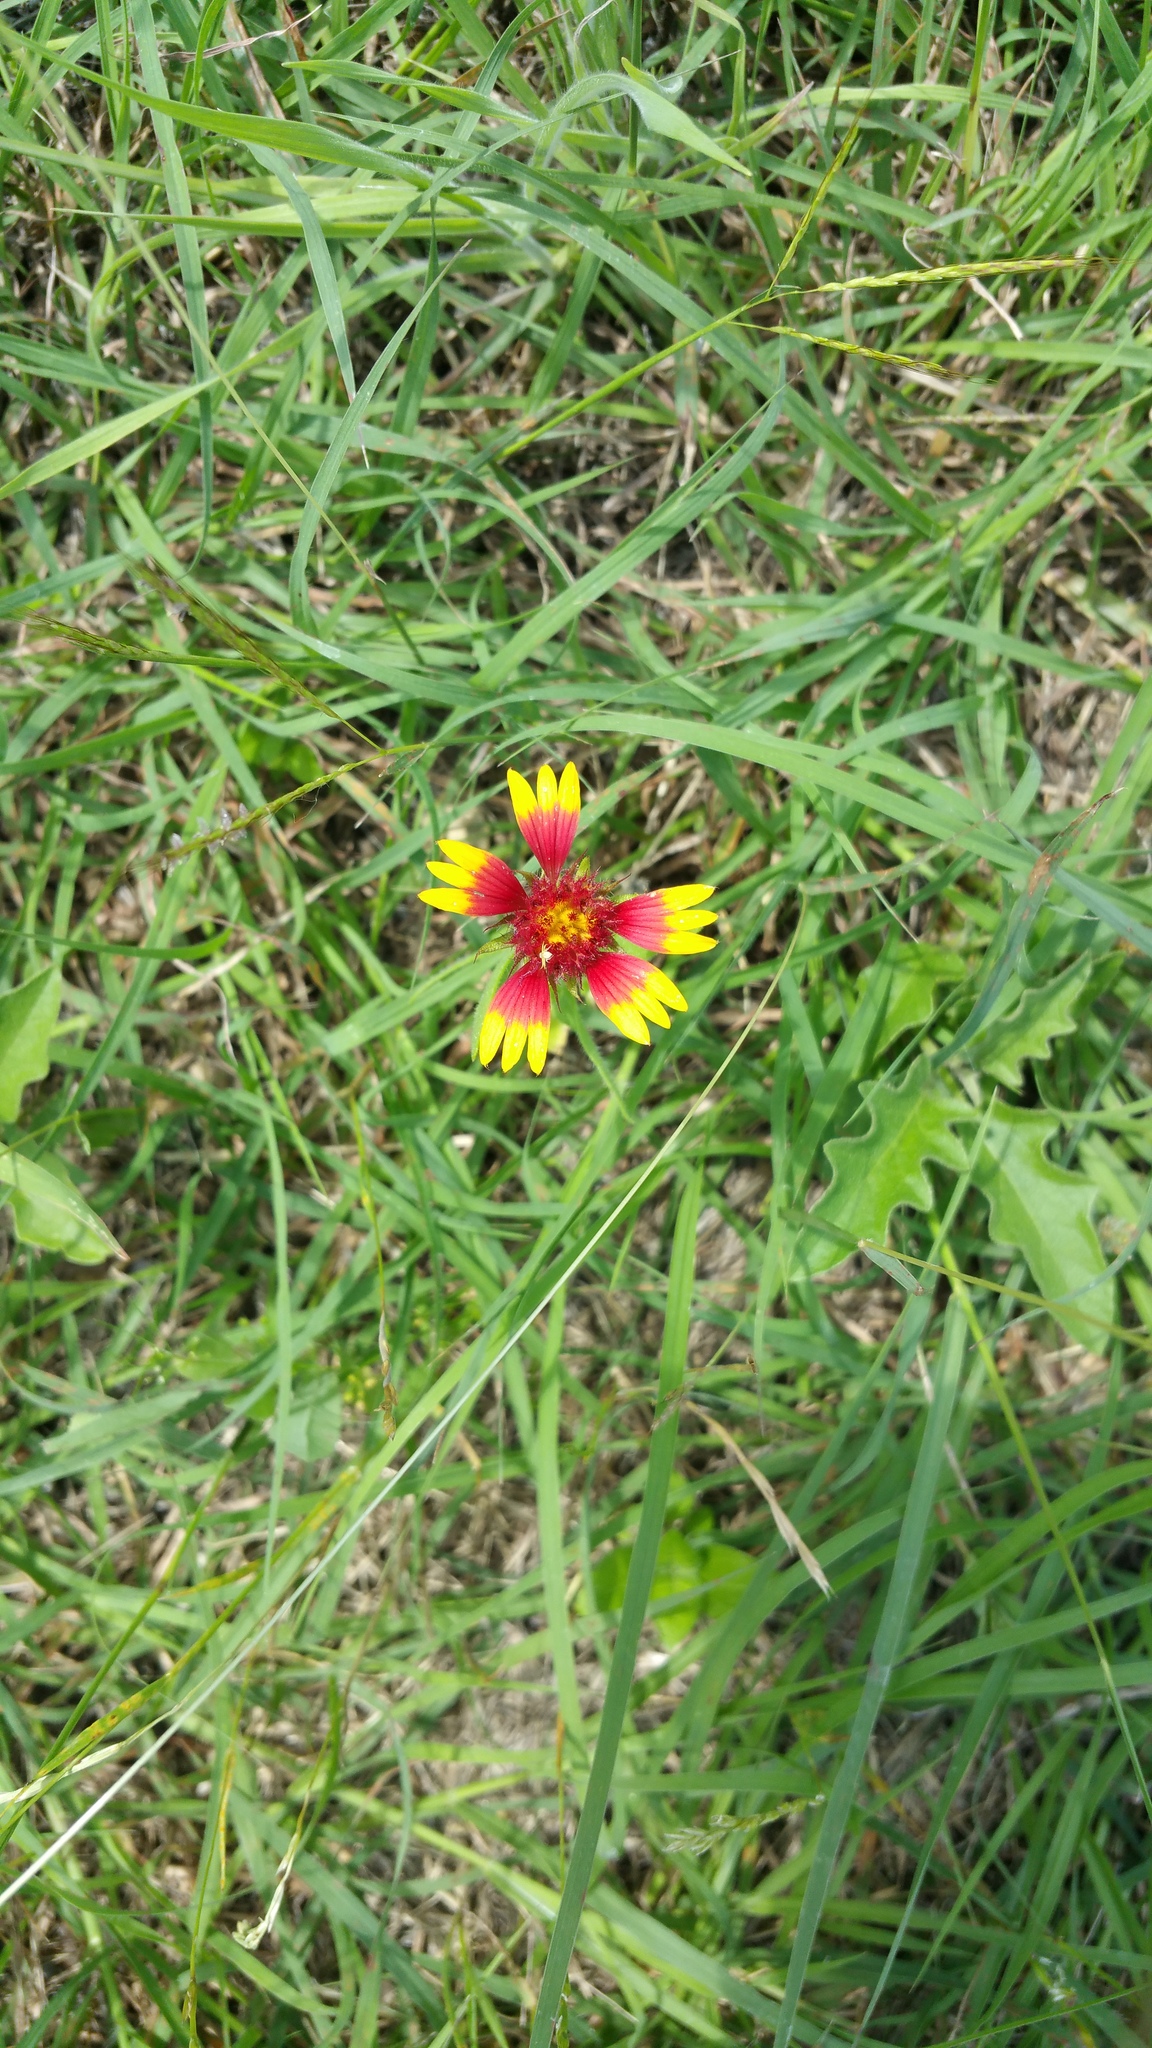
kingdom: Plantae
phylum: Tracheophyta
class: Magnoliopsida
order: Asterales
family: Asteraceae
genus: Gaillardia
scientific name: Gaillardia pulchella
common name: Firewheel
